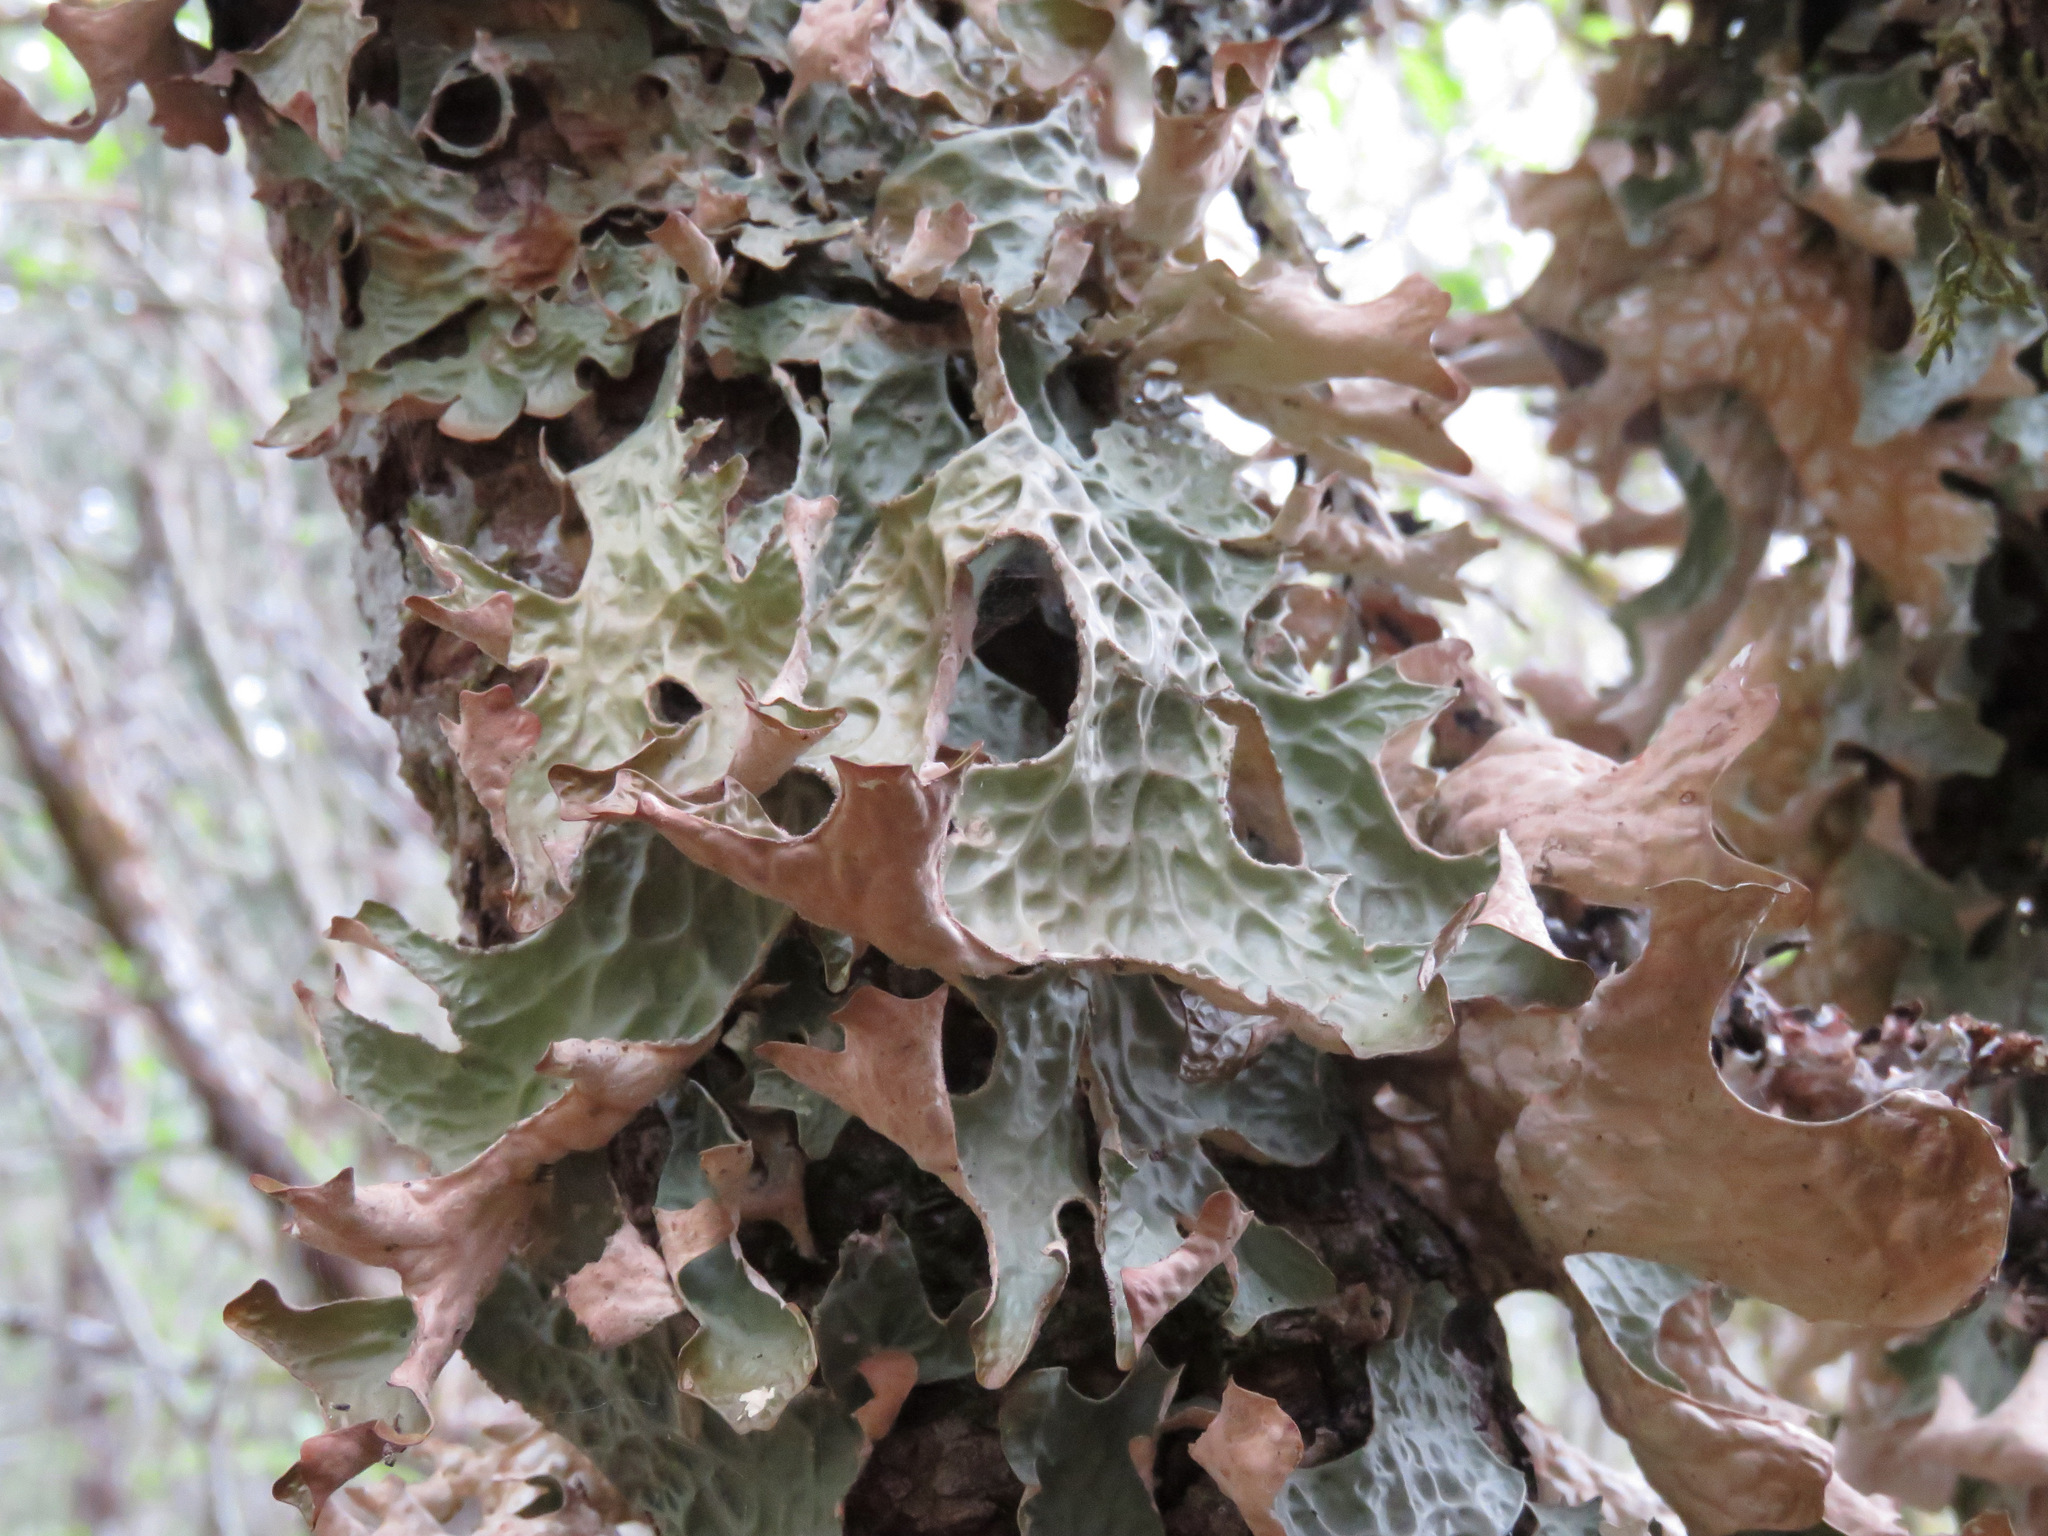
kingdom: Fungi
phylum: Ascomycota
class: Lecanoromycetes
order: Peltigerales
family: Lobariaceae
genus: Lobaria
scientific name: Lobaria pulmonaria
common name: Lungwort
